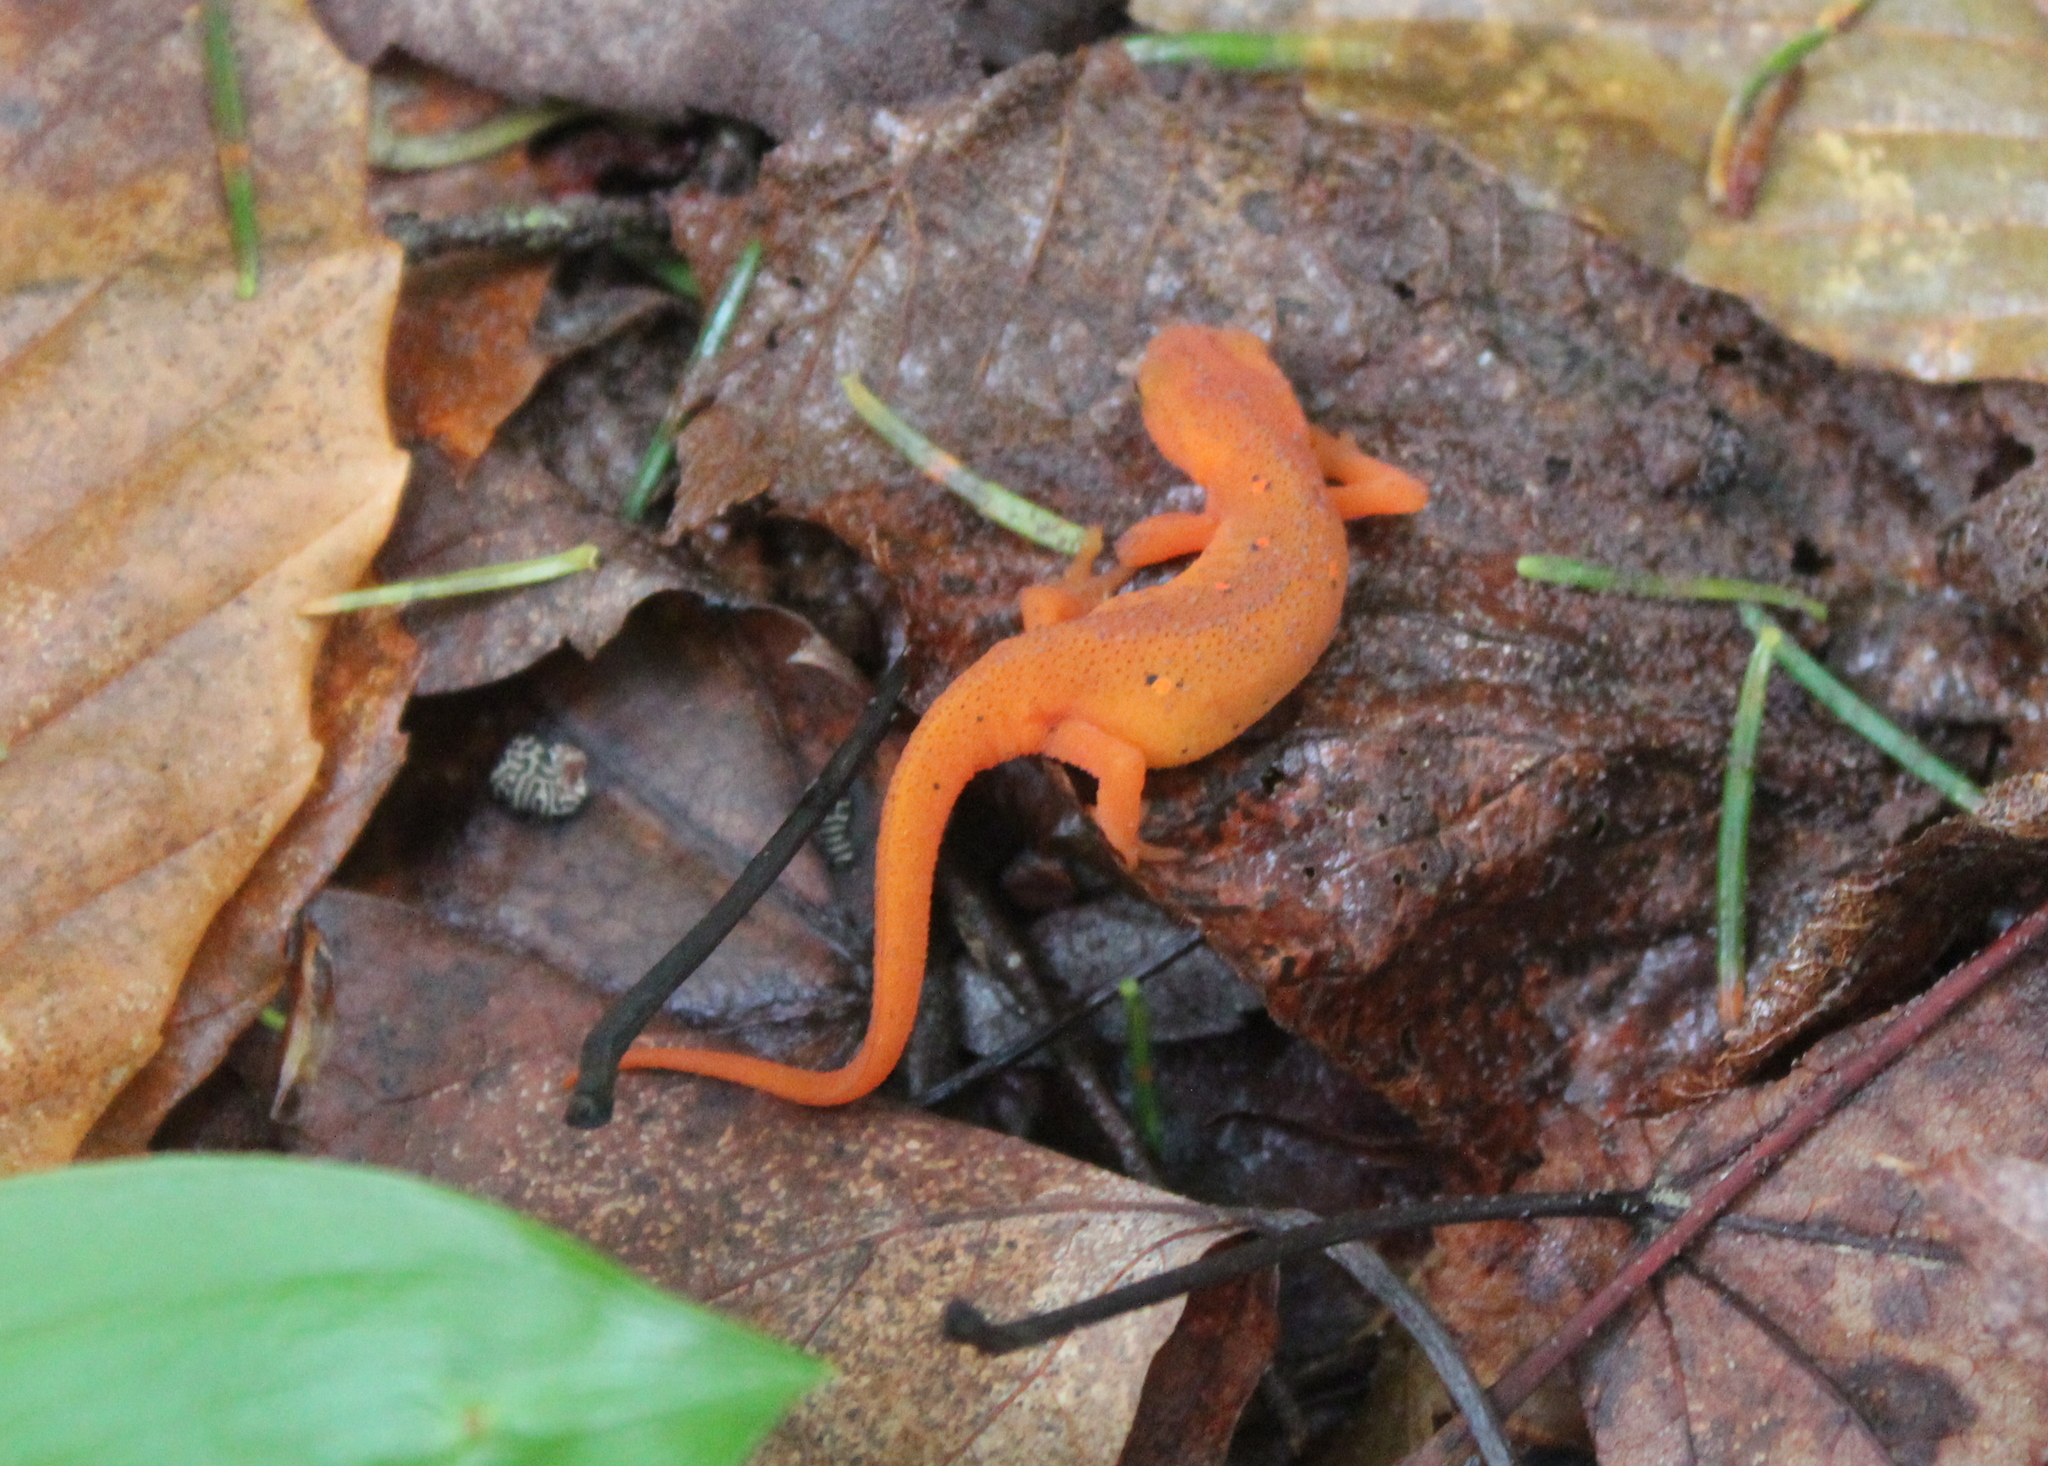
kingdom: Animalia
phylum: Chordata
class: Amphibia
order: Caudata
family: Salamandridae
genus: Notophthalmus
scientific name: Notophthalmus viridescens
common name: Eastern newt
